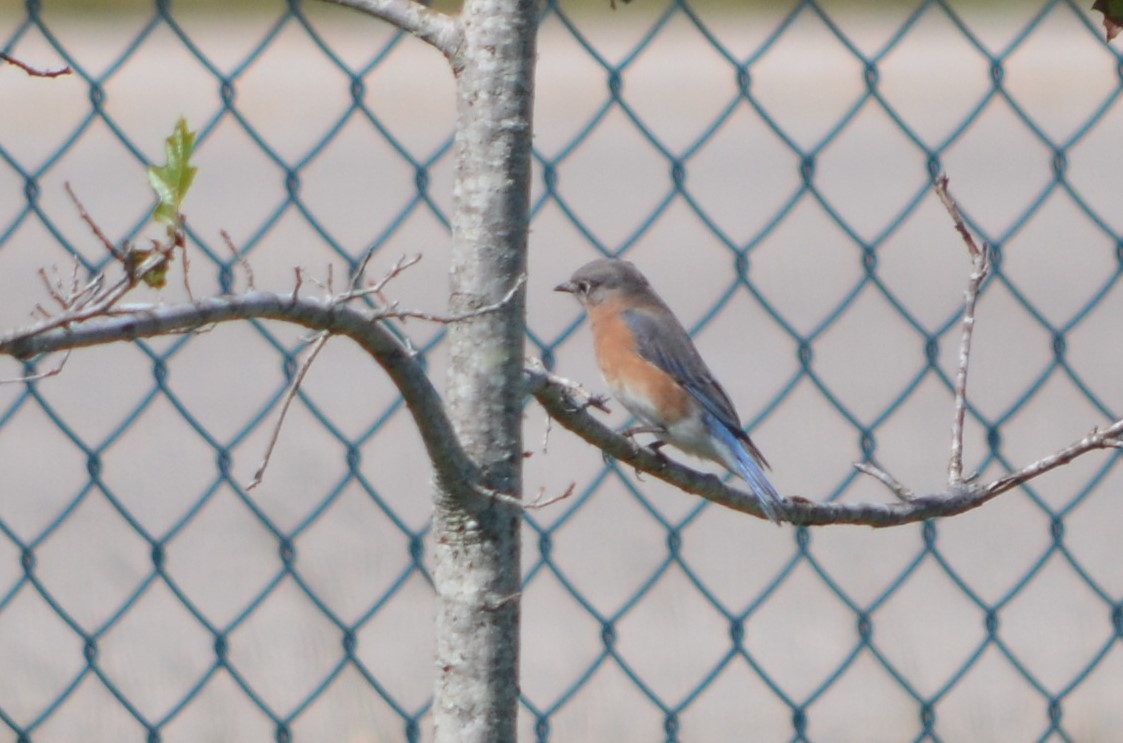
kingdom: Animalia
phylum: Chordata
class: Aves
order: Passeriformes
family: Turdidae
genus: Sialia
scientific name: Sialia sialis
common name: Eastern bluebird
